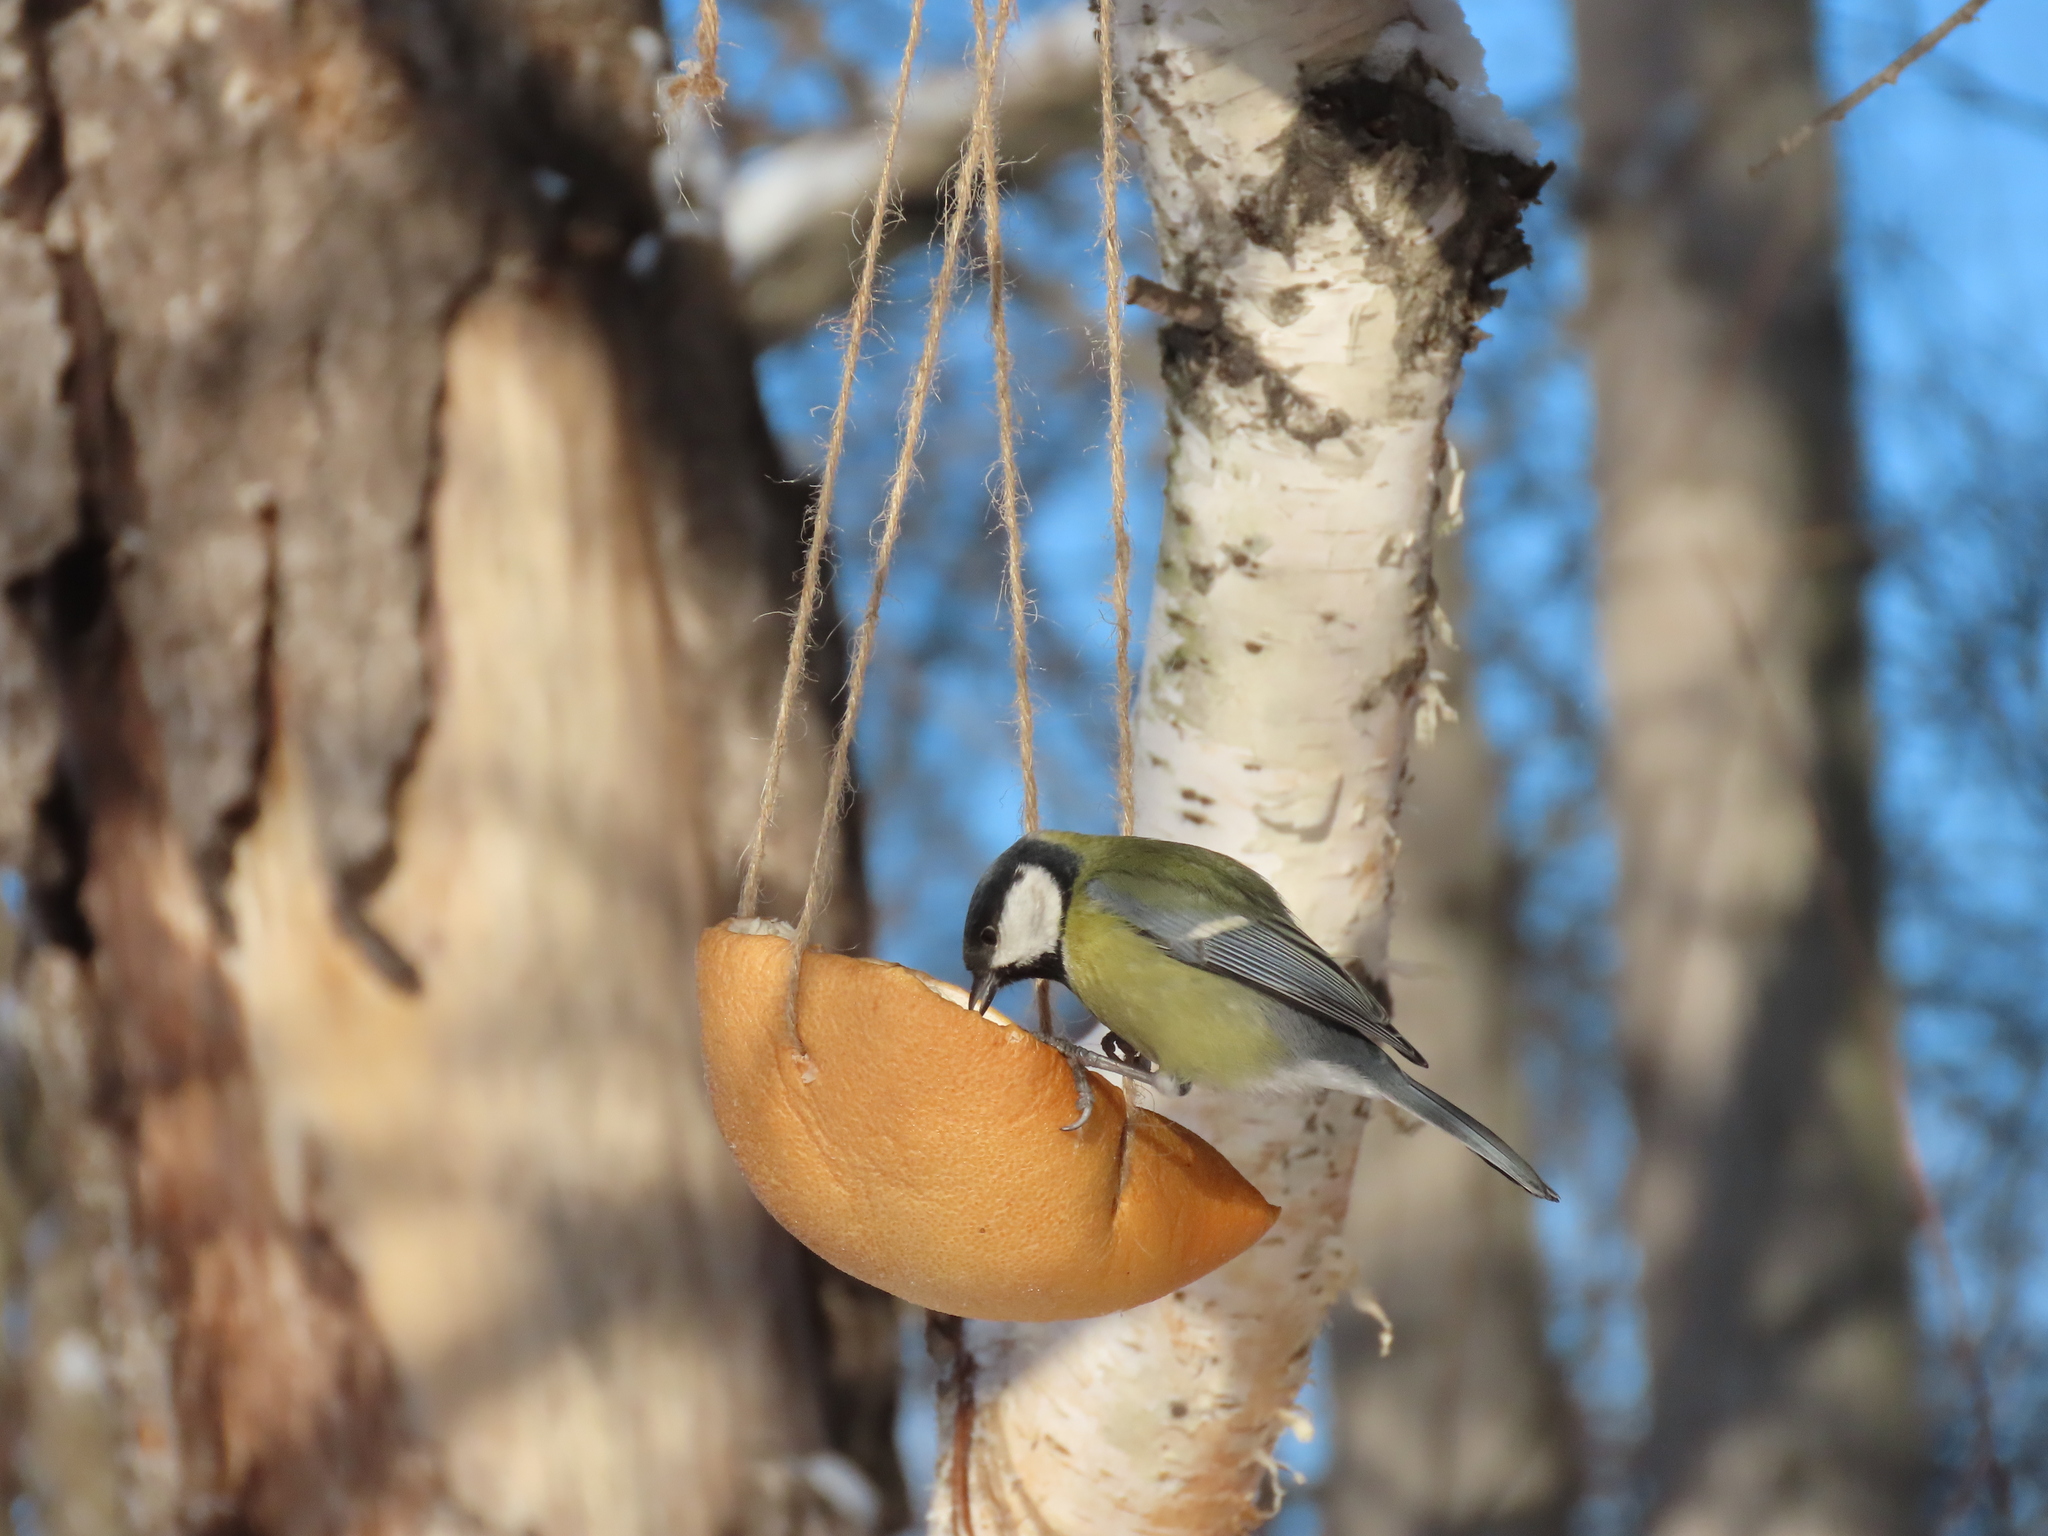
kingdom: Animalia
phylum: Chordata
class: Aves
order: Passeriformes
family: Paridae
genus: Parus
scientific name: Parus major
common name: Great tit
